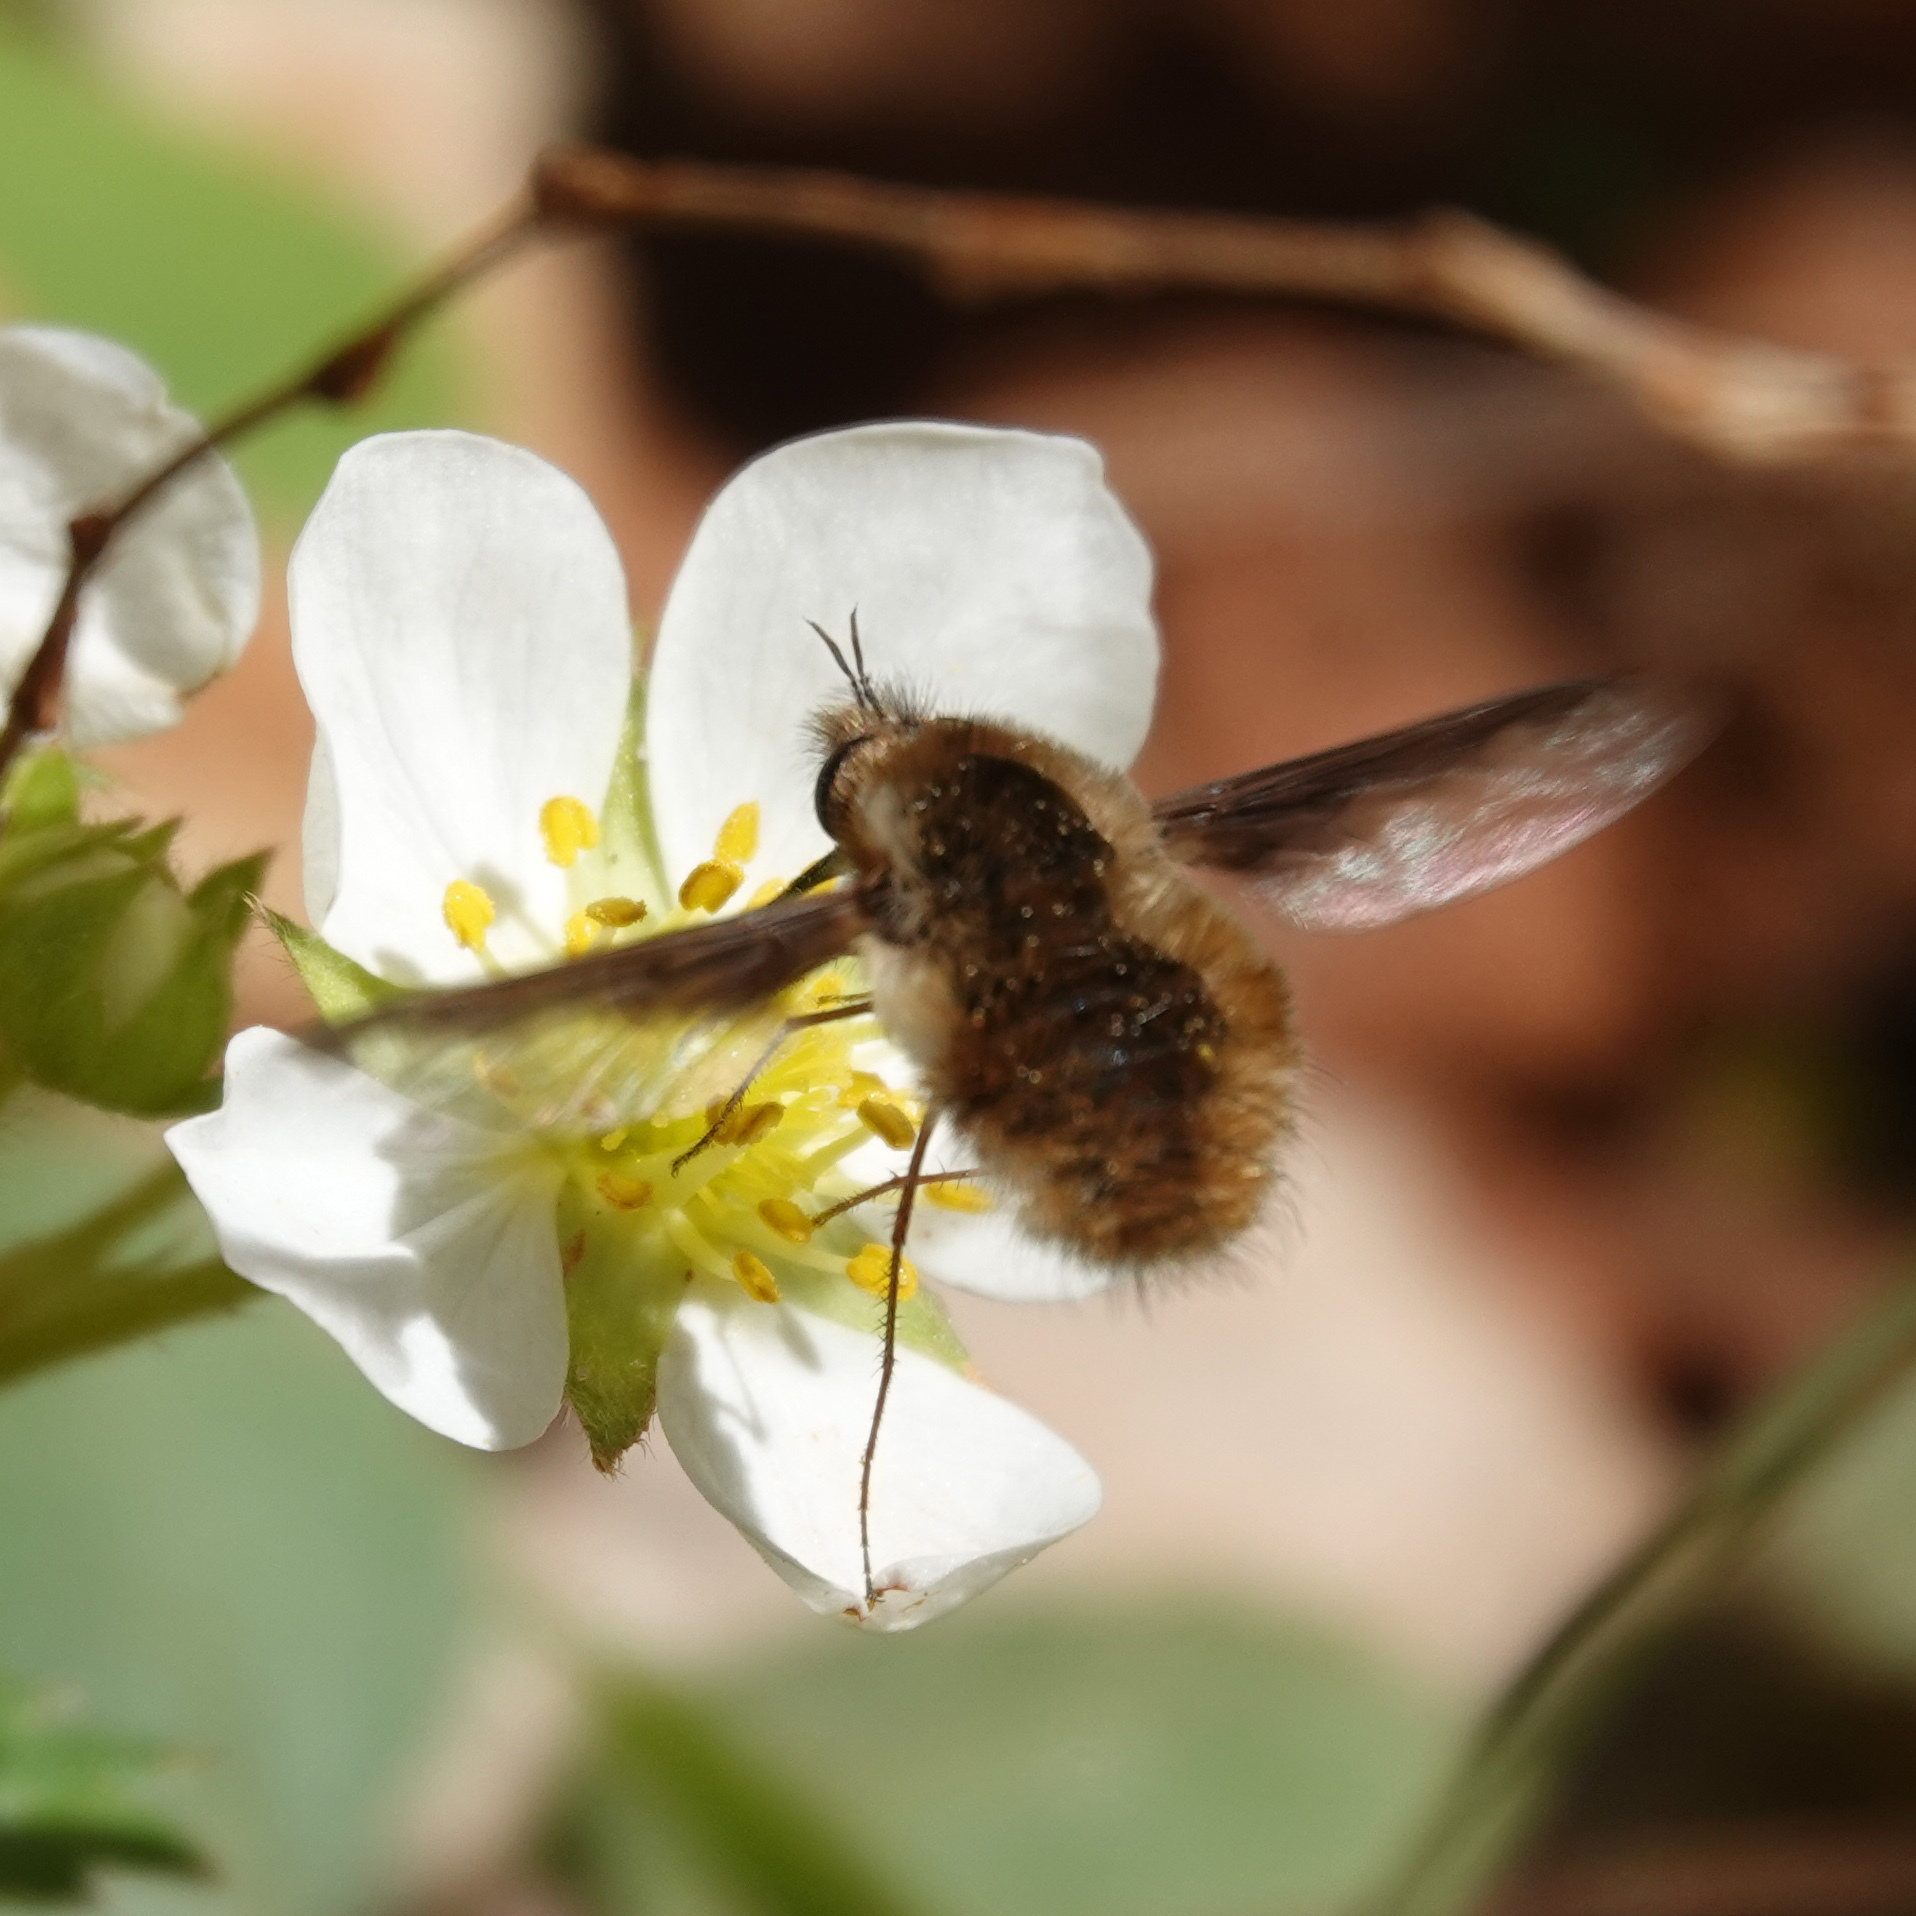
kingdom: Animalia
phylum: Arthropoda
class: Insecta
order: Diptera
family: Bombyliidae
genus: Bombylius
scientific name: Bombylius major
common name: Bee fly
